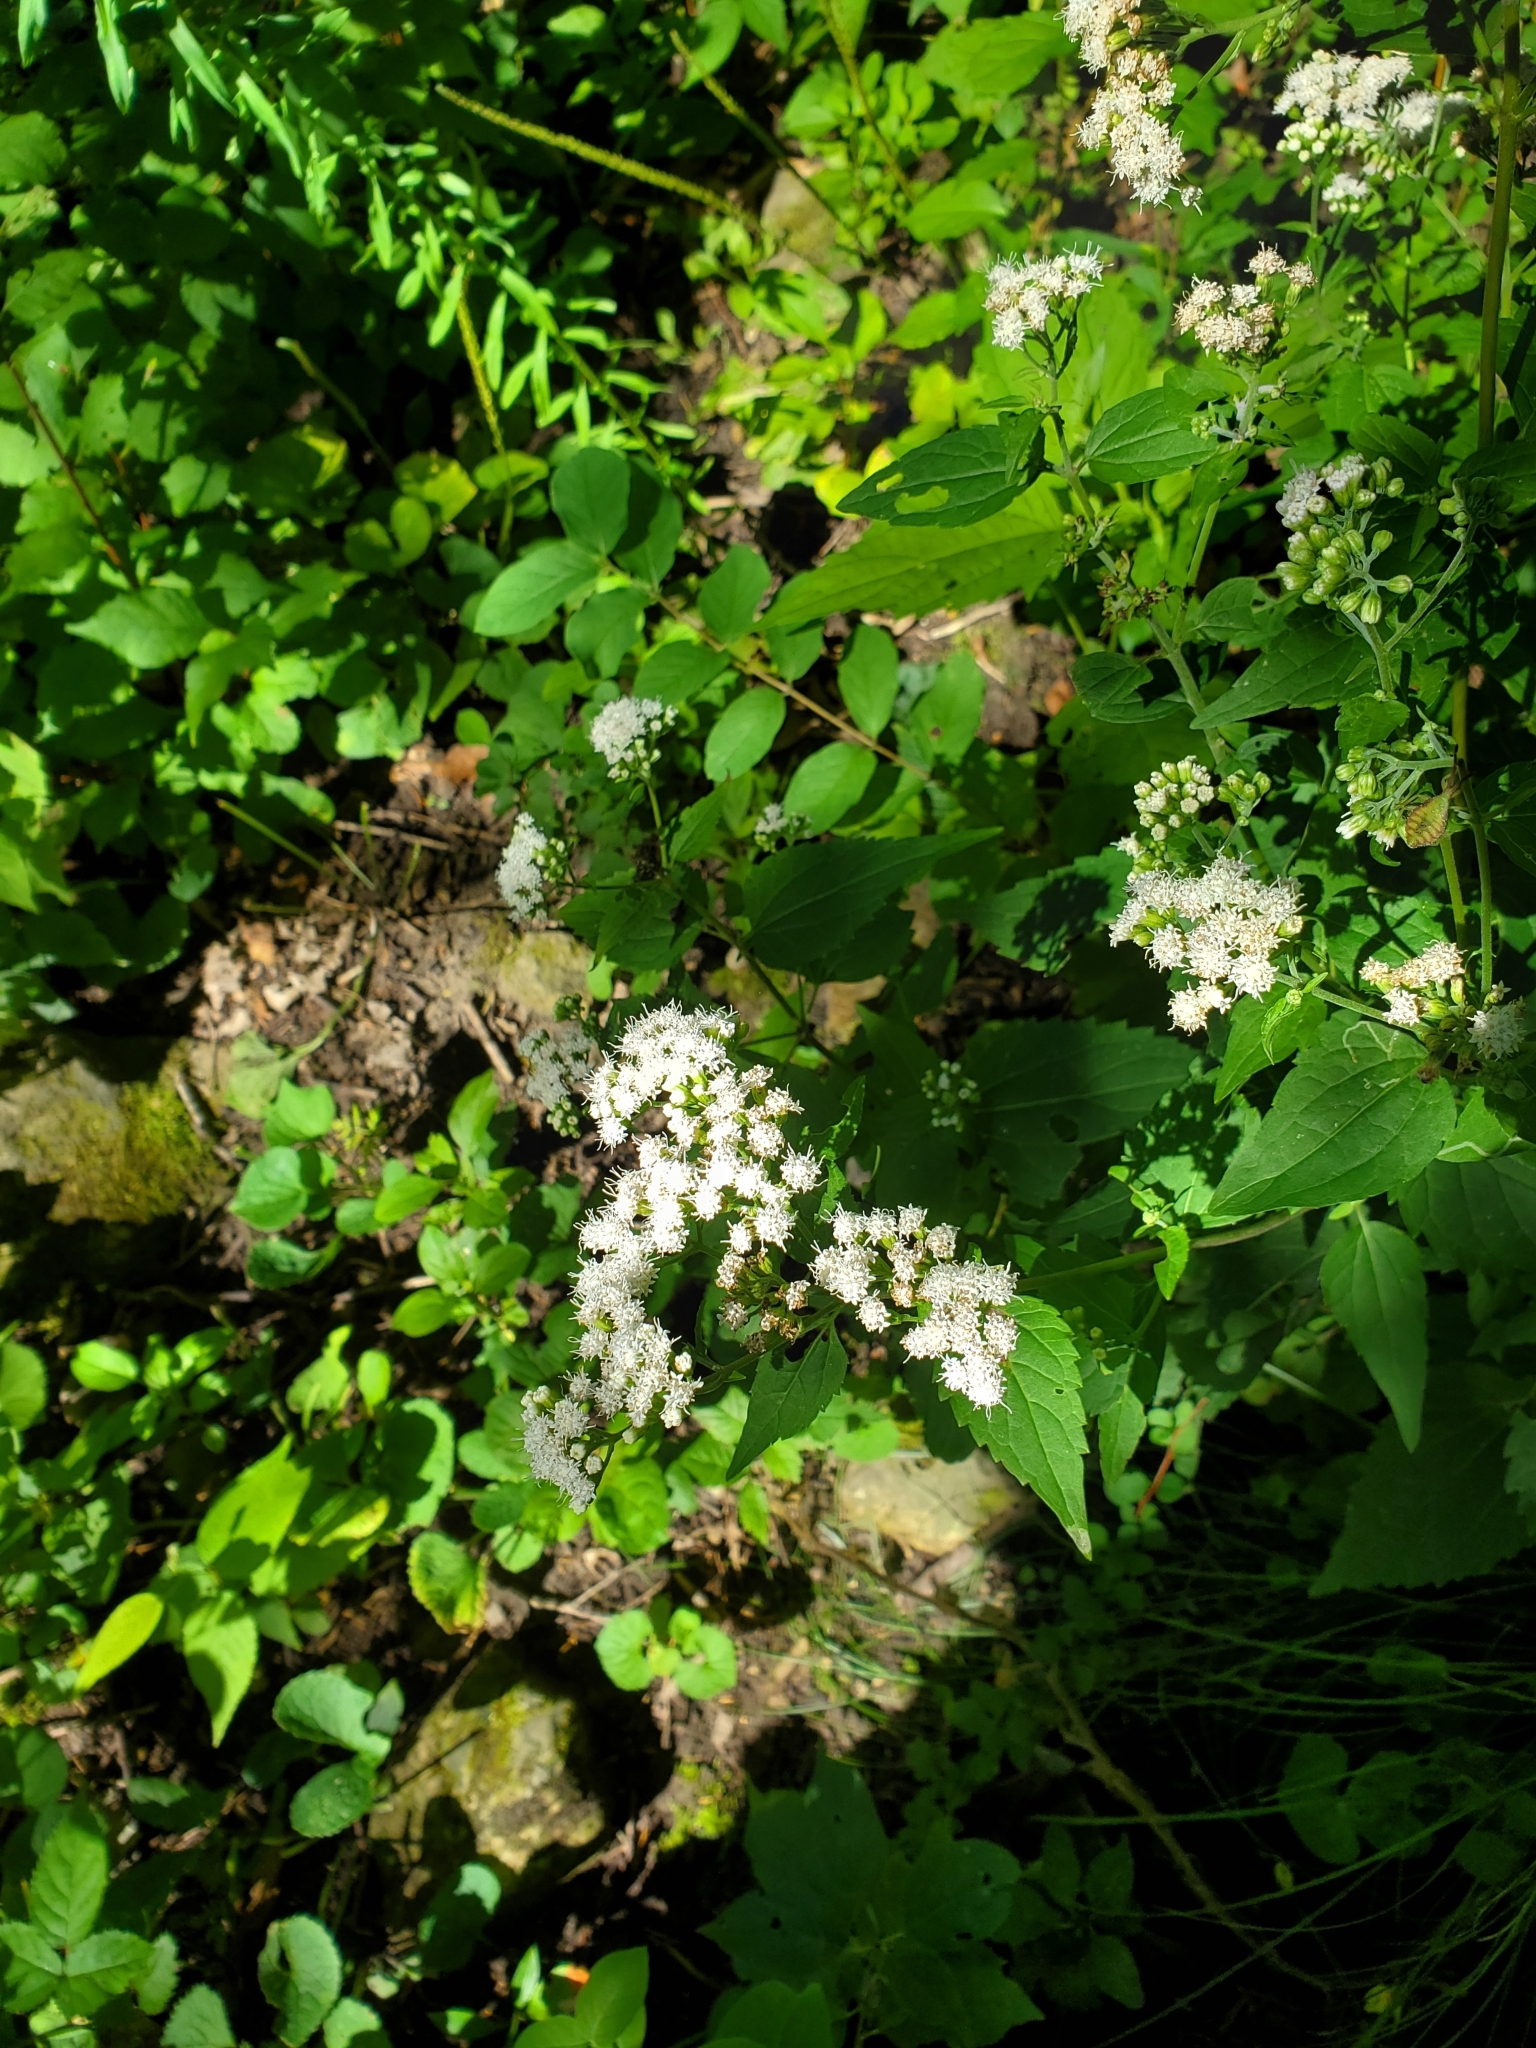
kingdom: Plantae
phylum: Tracheophyta
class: Magnoliopsida
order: Asterales
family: Asteraceae
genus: Ageratina
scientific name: Ageratina altissima
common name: White snakeroot
